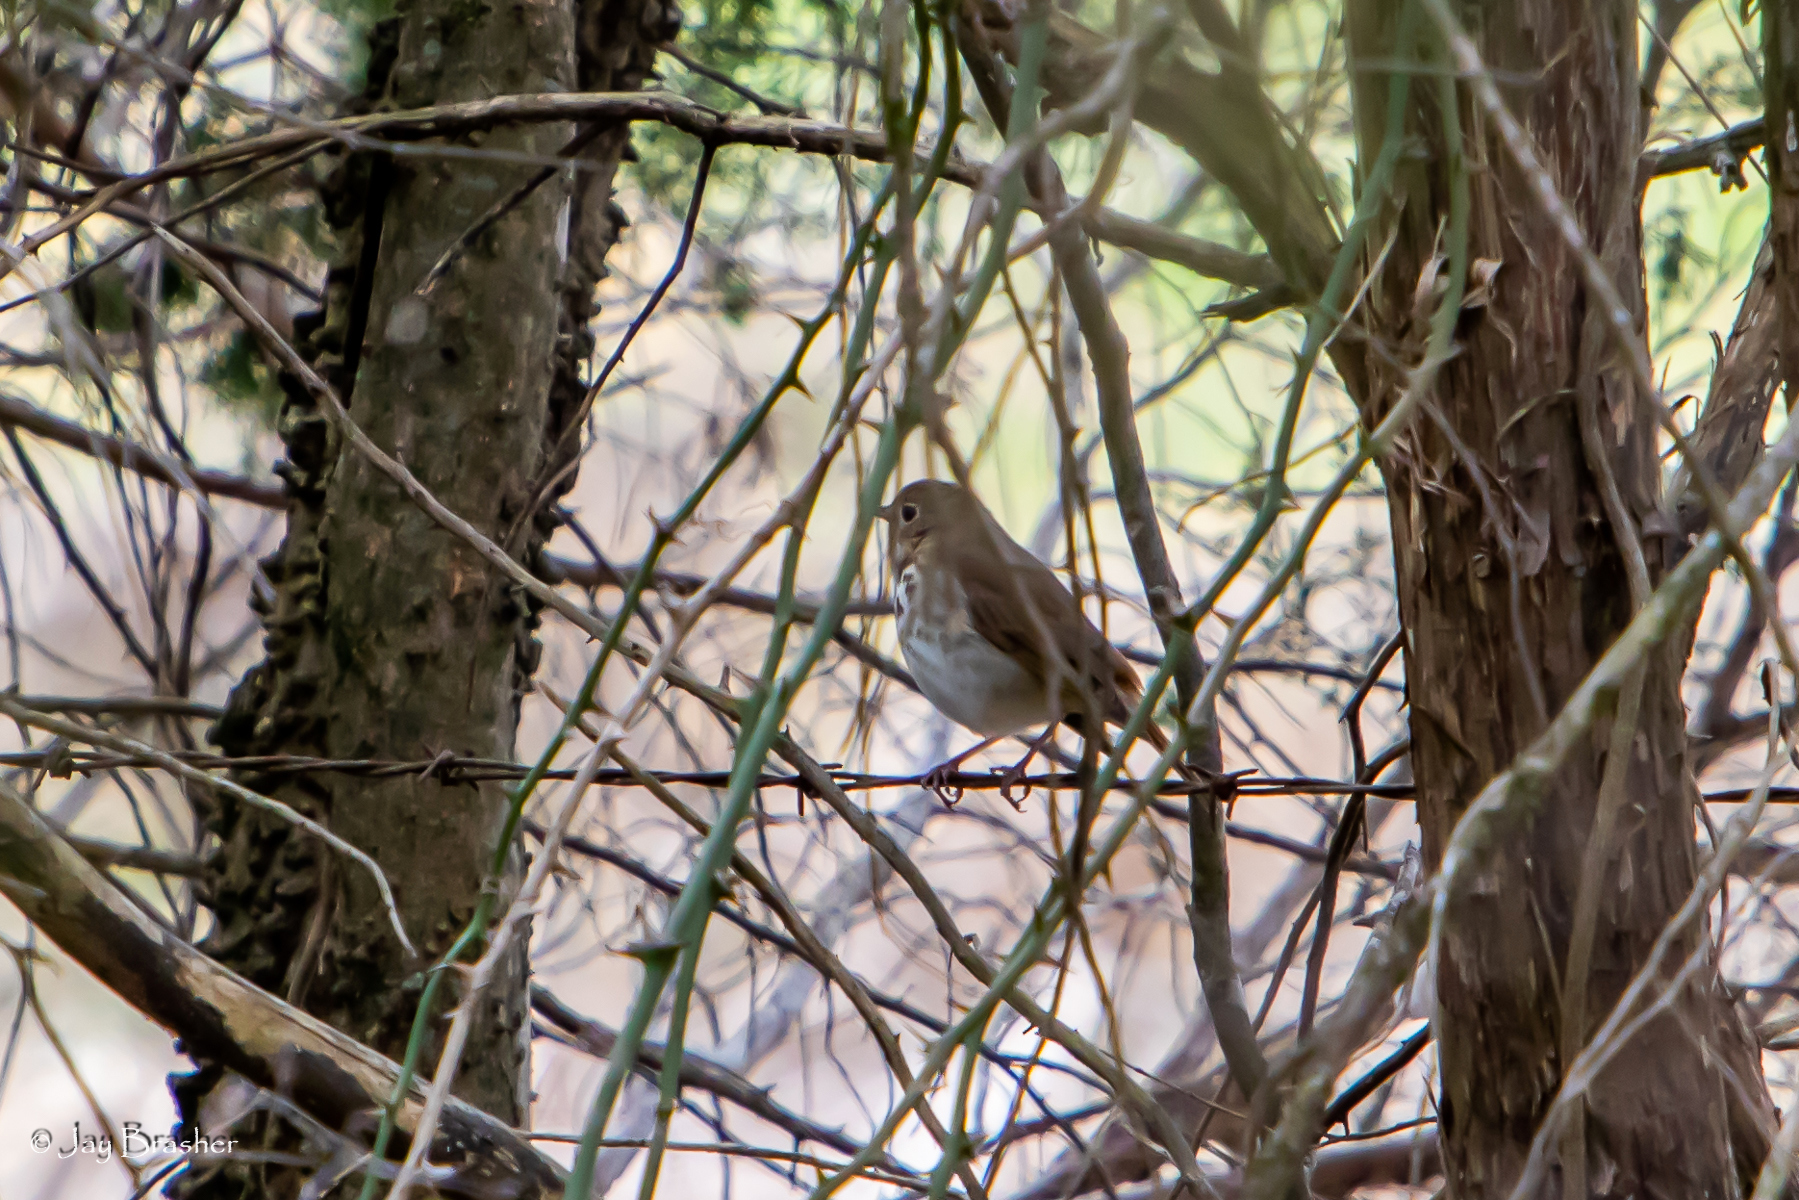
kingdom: Animalia
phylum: Chordata
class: Aves
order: Passeriformes
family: Turdidae
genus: Catharus
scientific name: Catharus guttatus
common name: Hermit thrush
